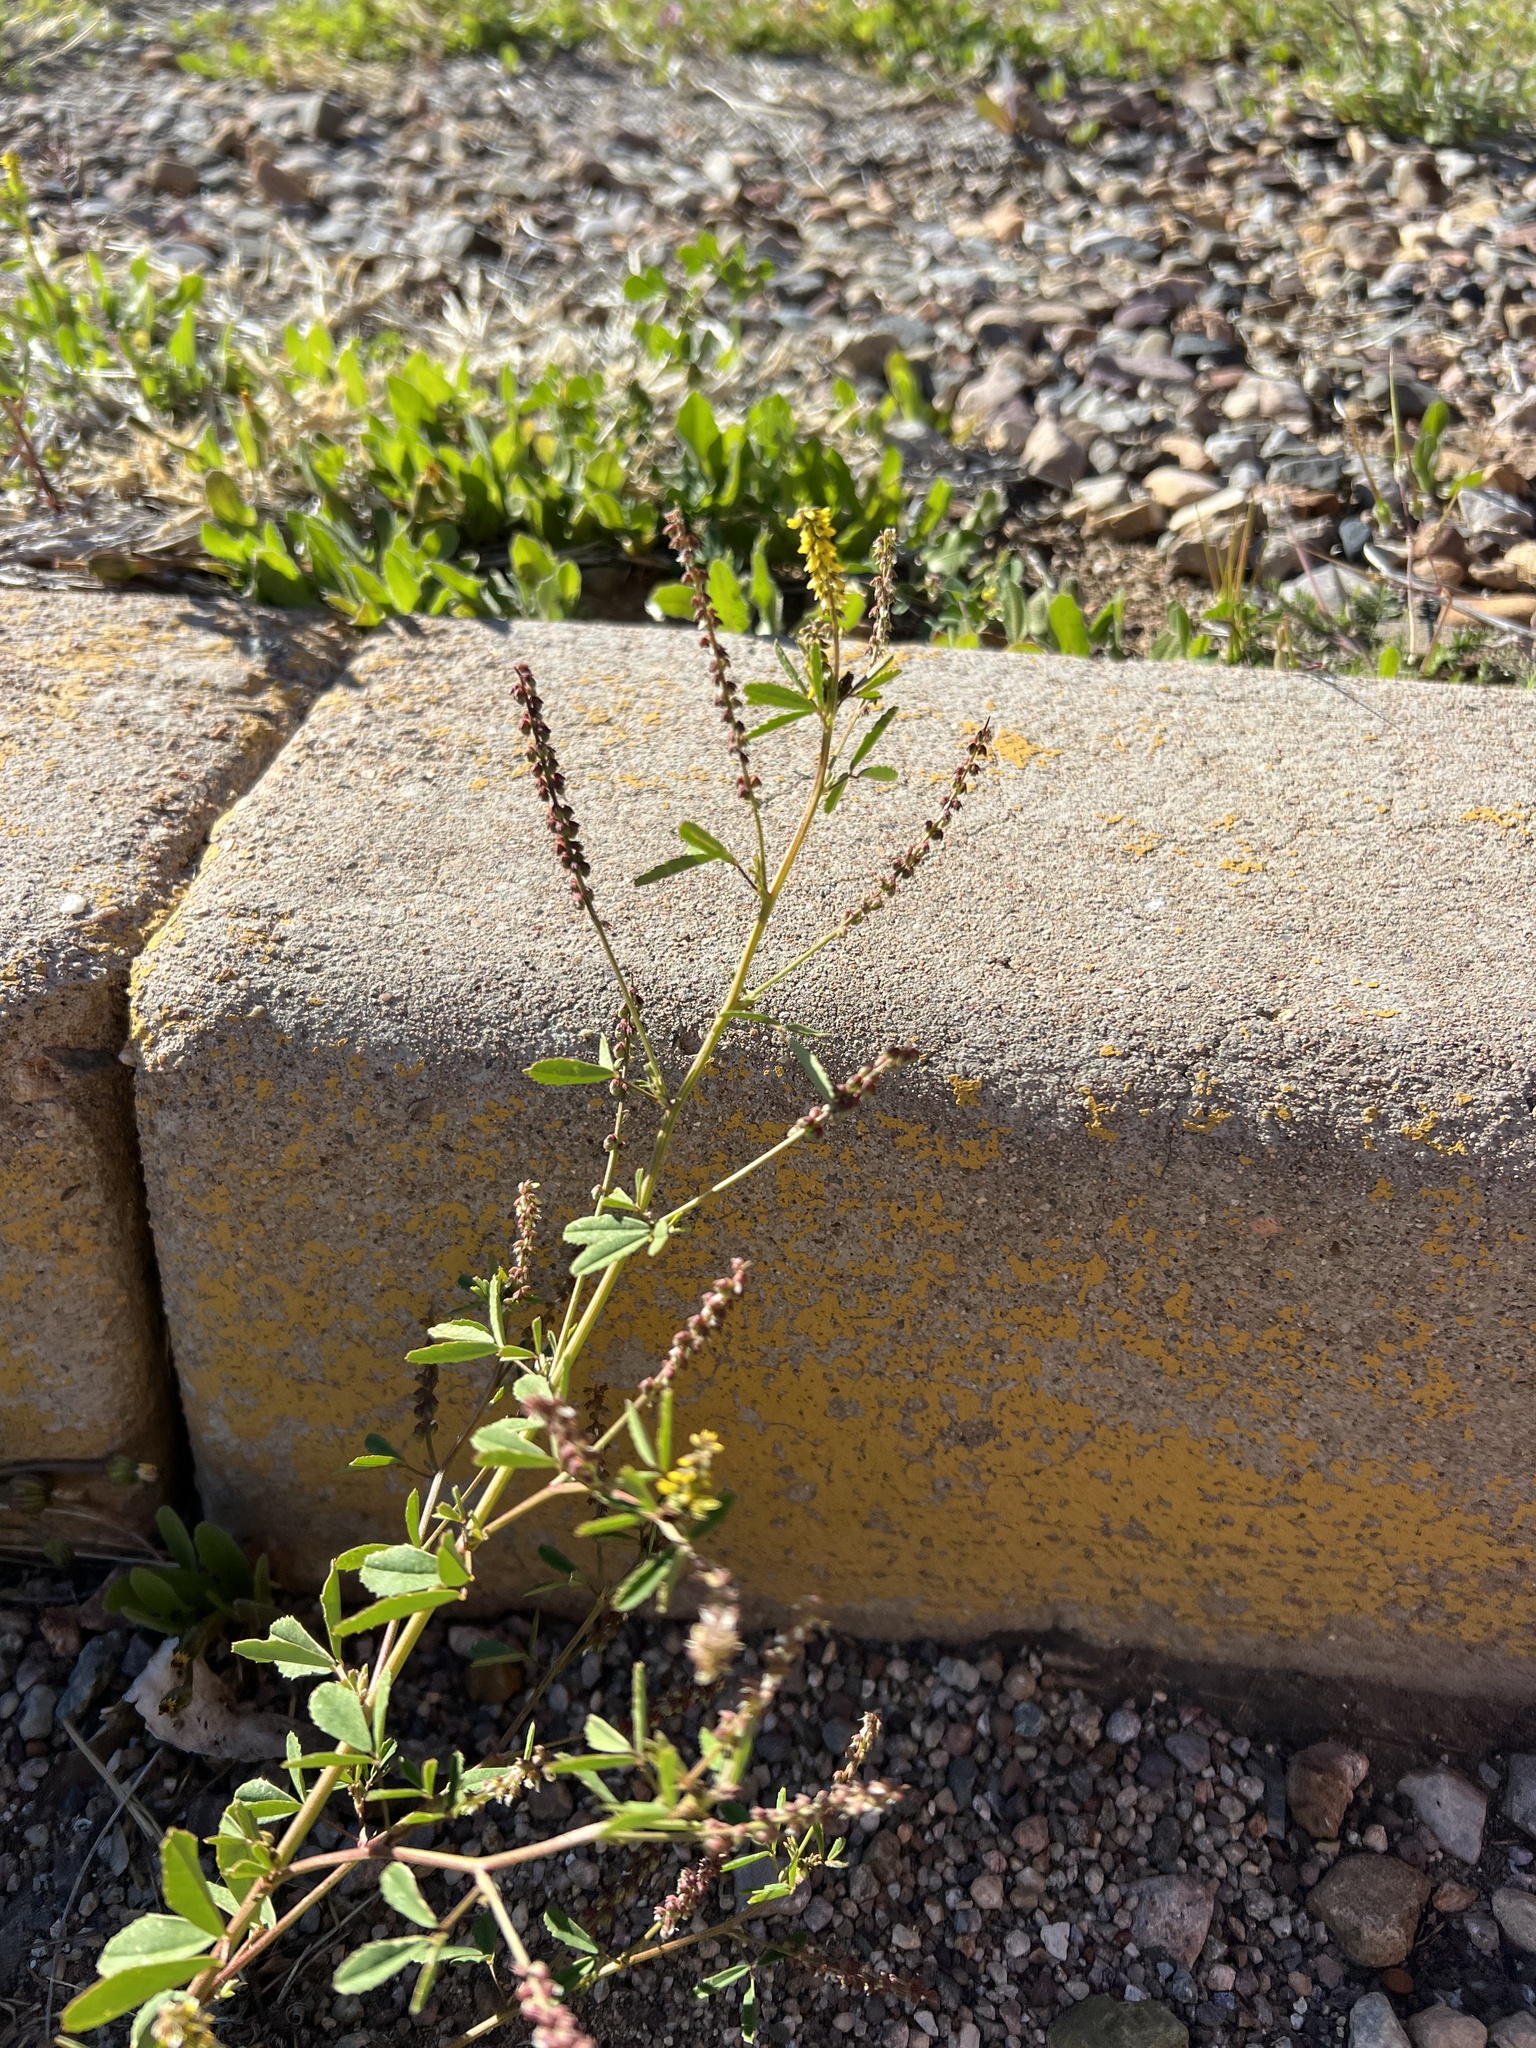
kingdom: Plantae
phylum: Tracheophyta
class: Magnoliopsida
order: Fabales
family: Fabaceae
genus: Melilotus
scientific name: Melilotus indicus
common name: Small melilot
